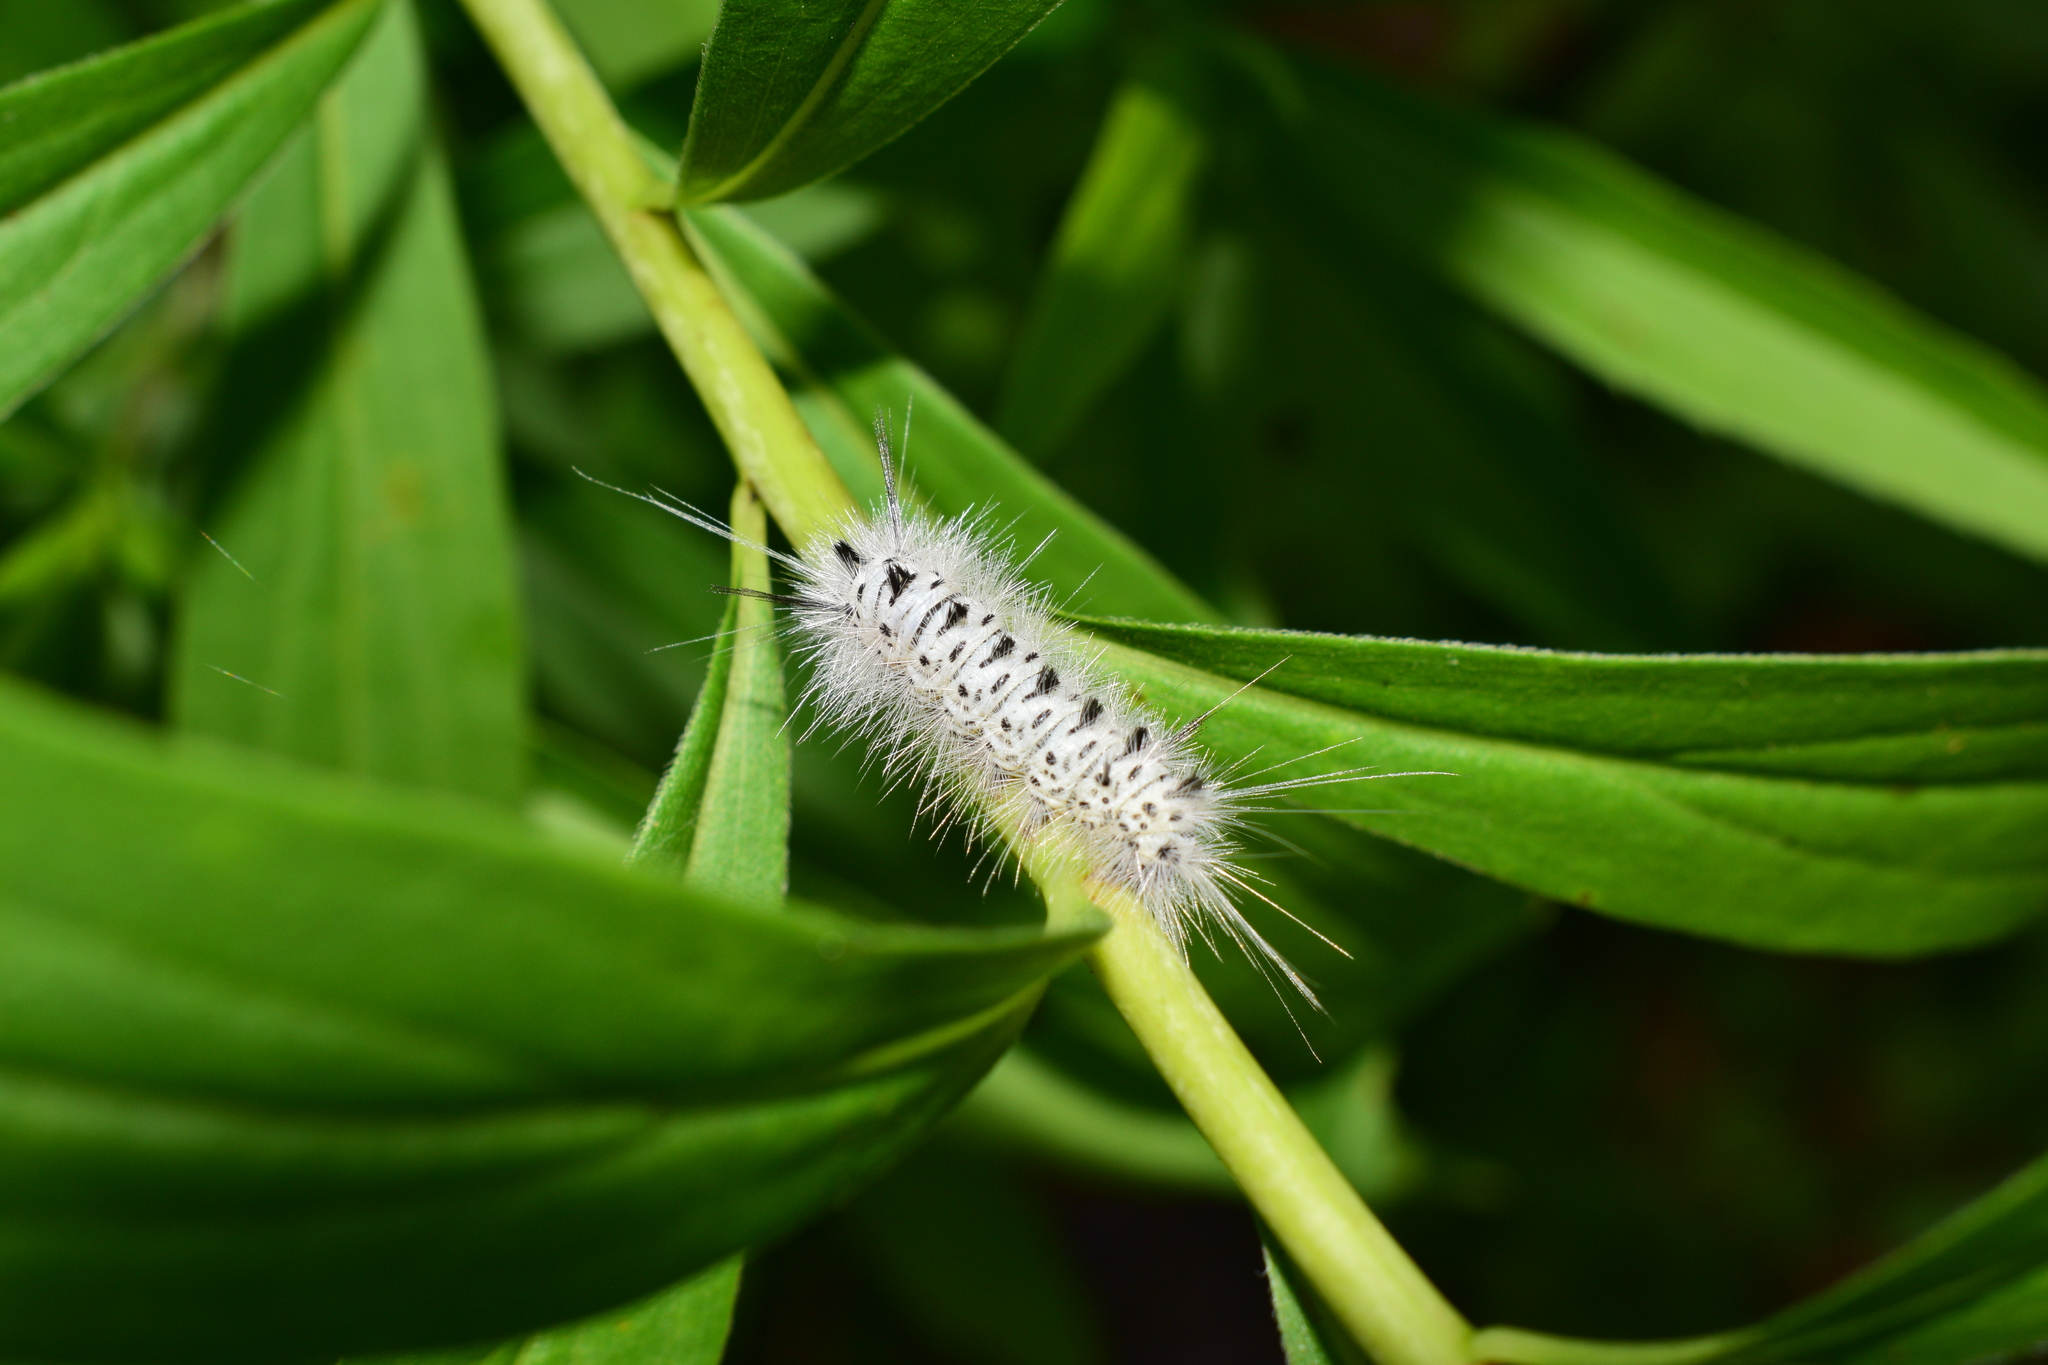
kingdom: Animalia
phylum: Arthropoda
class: Insecta
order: Lepidoptera
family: Erebidae
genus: Lophocampa
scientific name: Lophocampa caryae
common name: Hickory tussock moth
